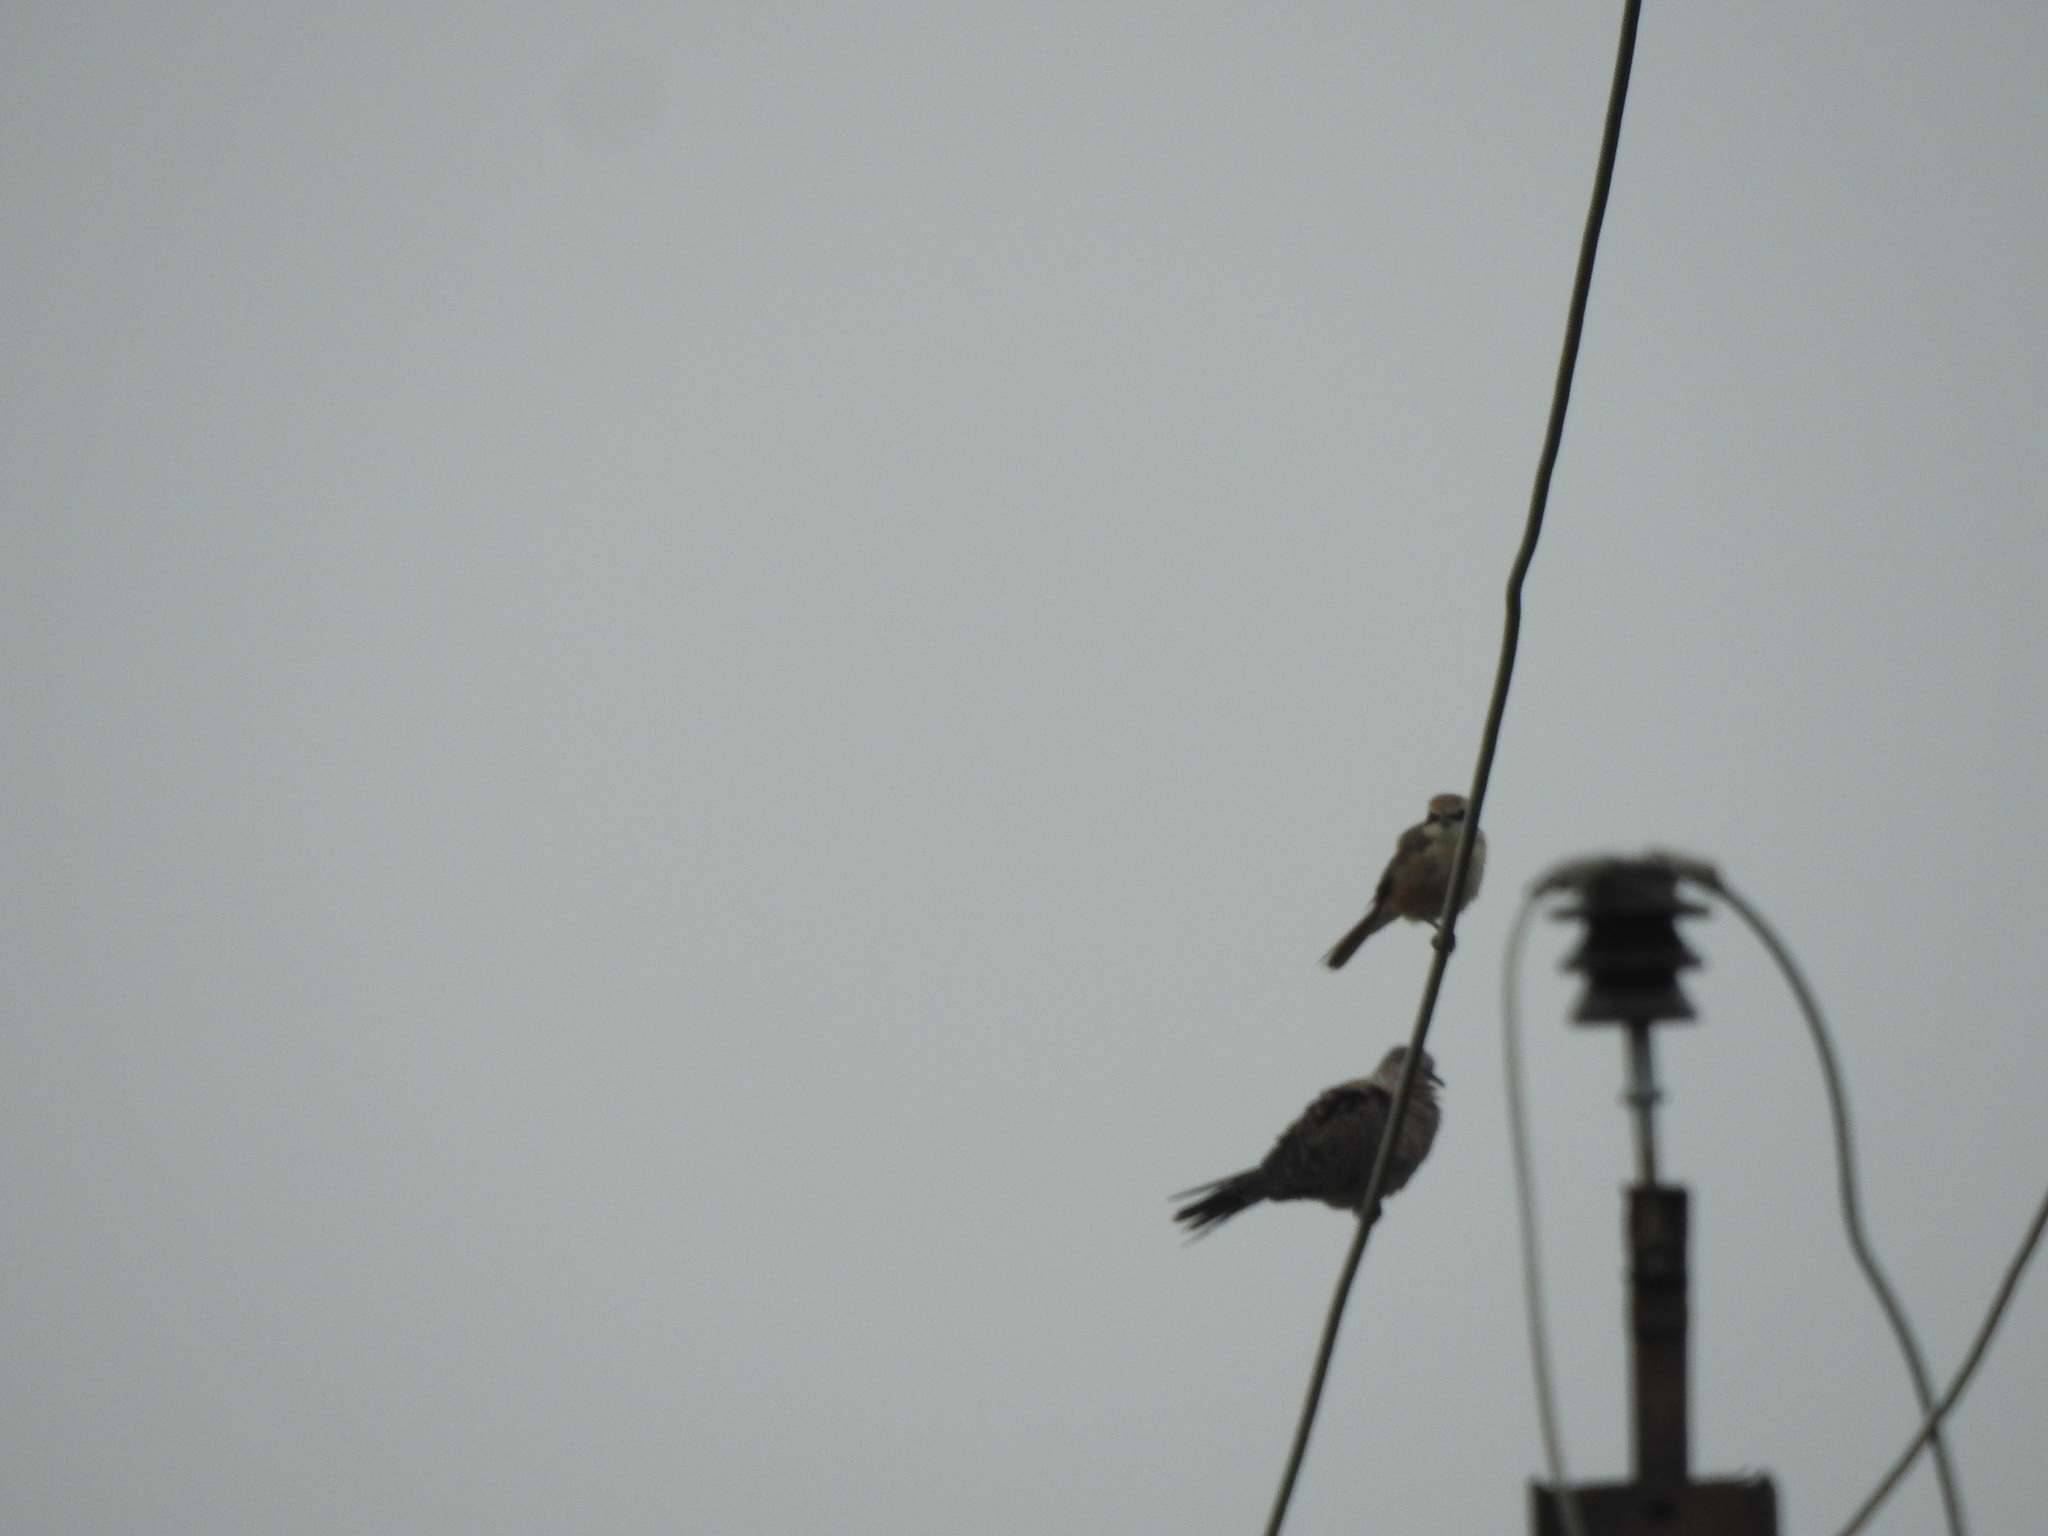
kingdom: Animalia
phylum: Chordata
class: Aves
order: Passeriformes
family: Laniidae
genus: Lanius
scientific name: Lanius cristatus
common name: Brown shrike
